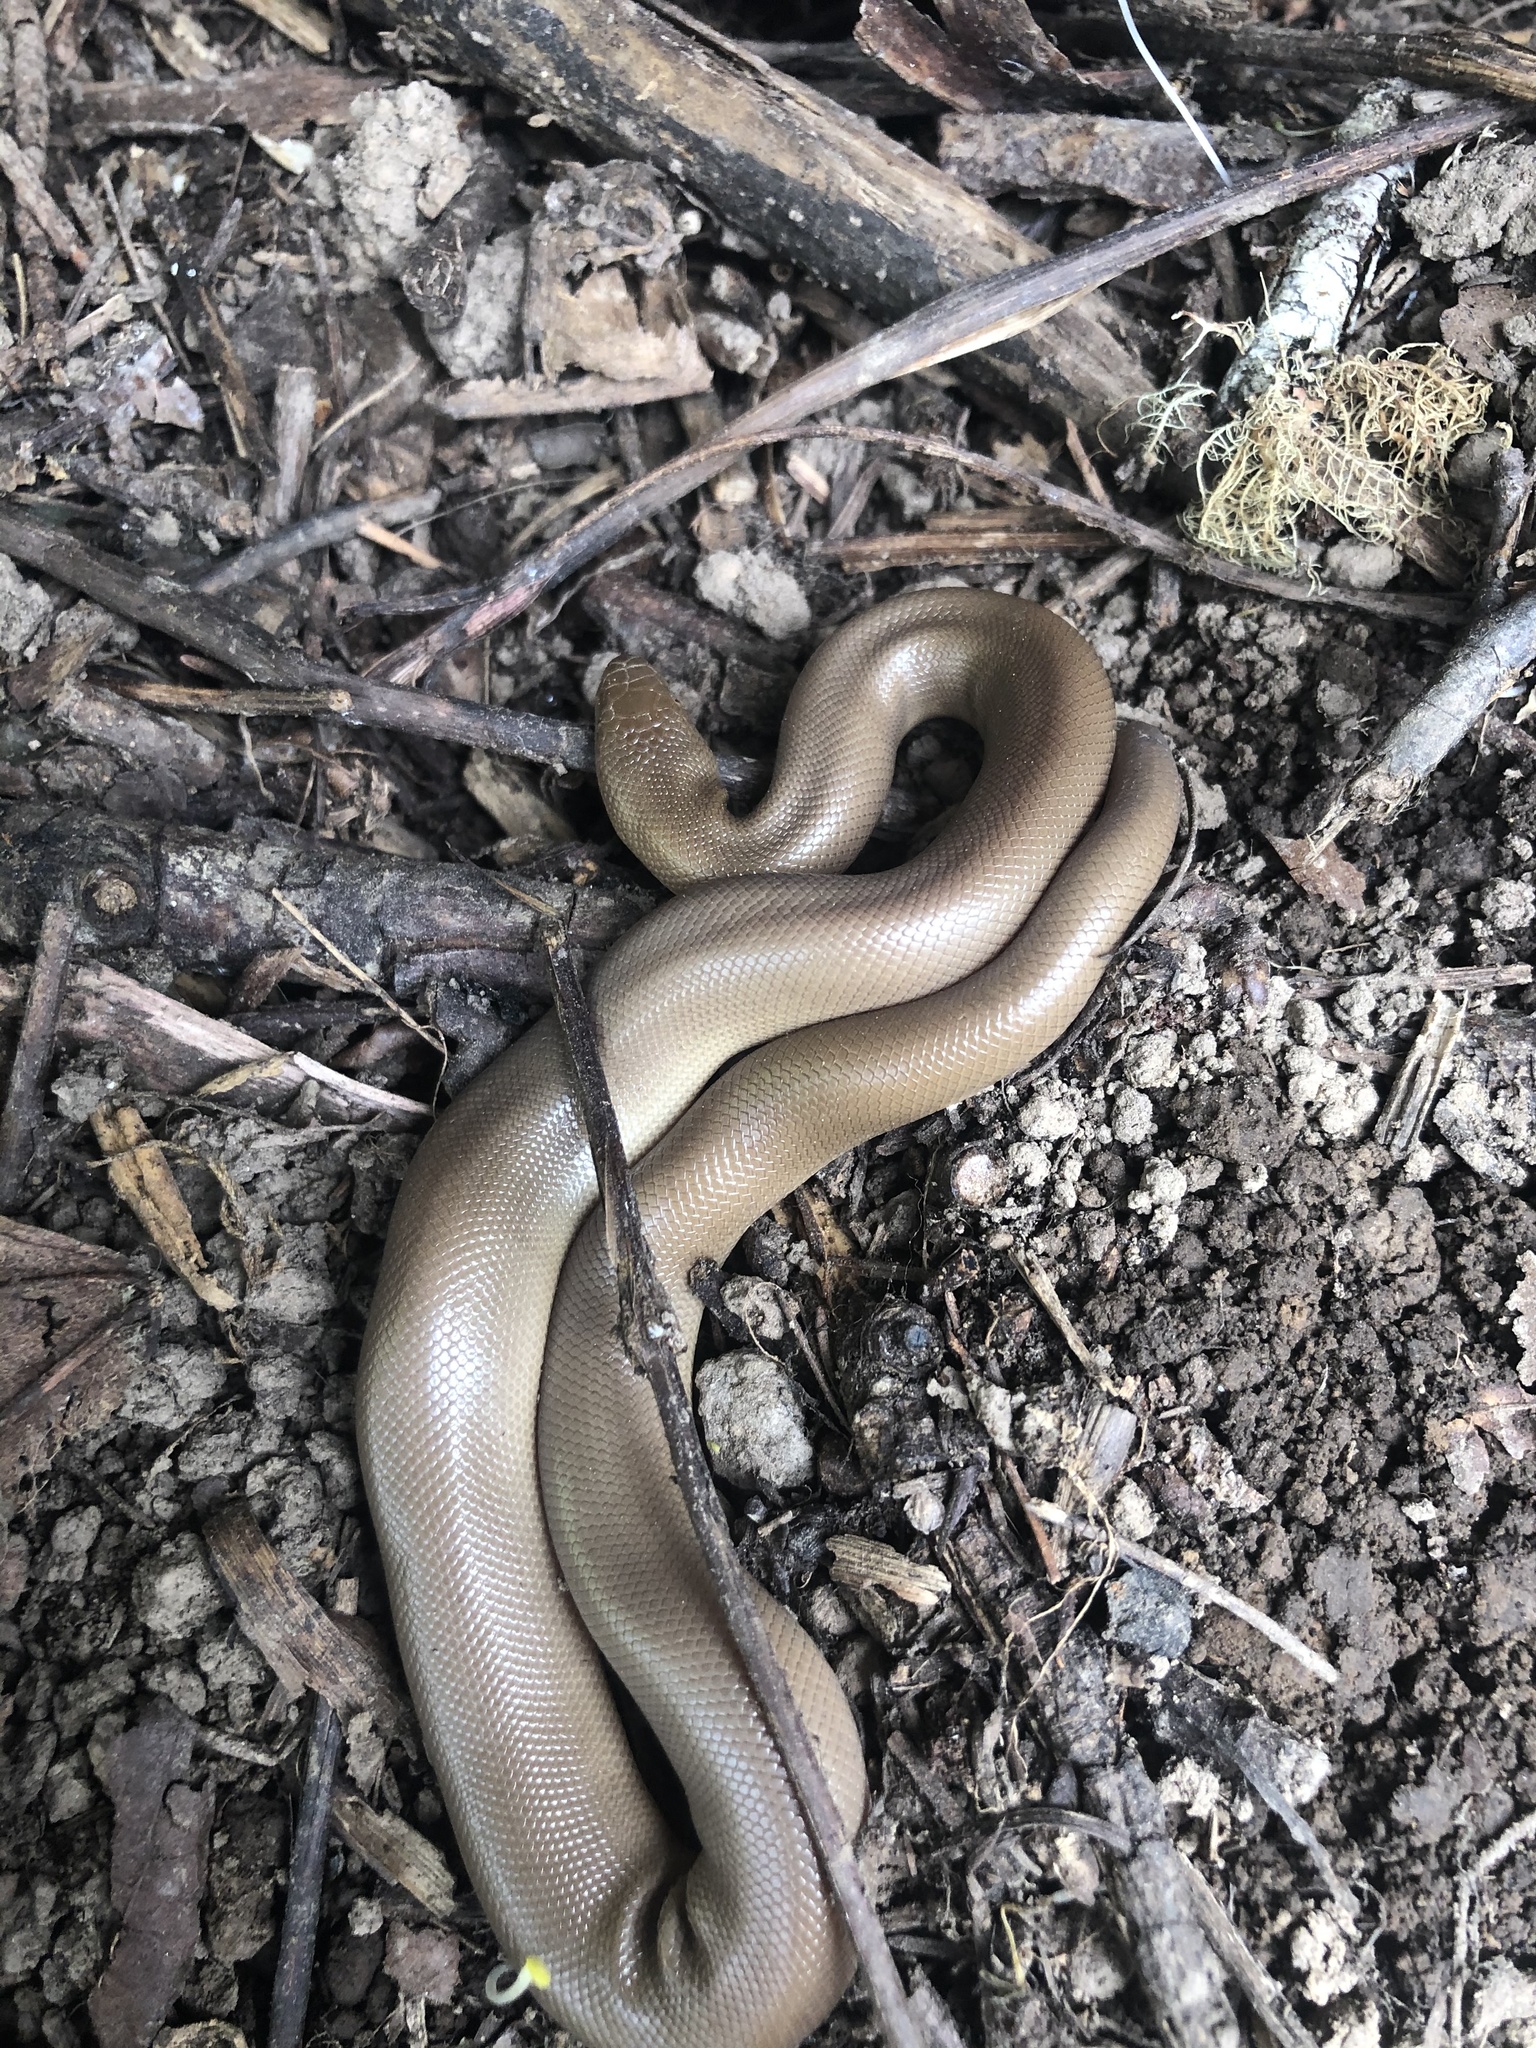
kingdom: Animalia
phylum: Chordata
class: Squamata
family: Boidae
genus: Charina
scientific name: Charina bottae
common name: Northern rubber boa
